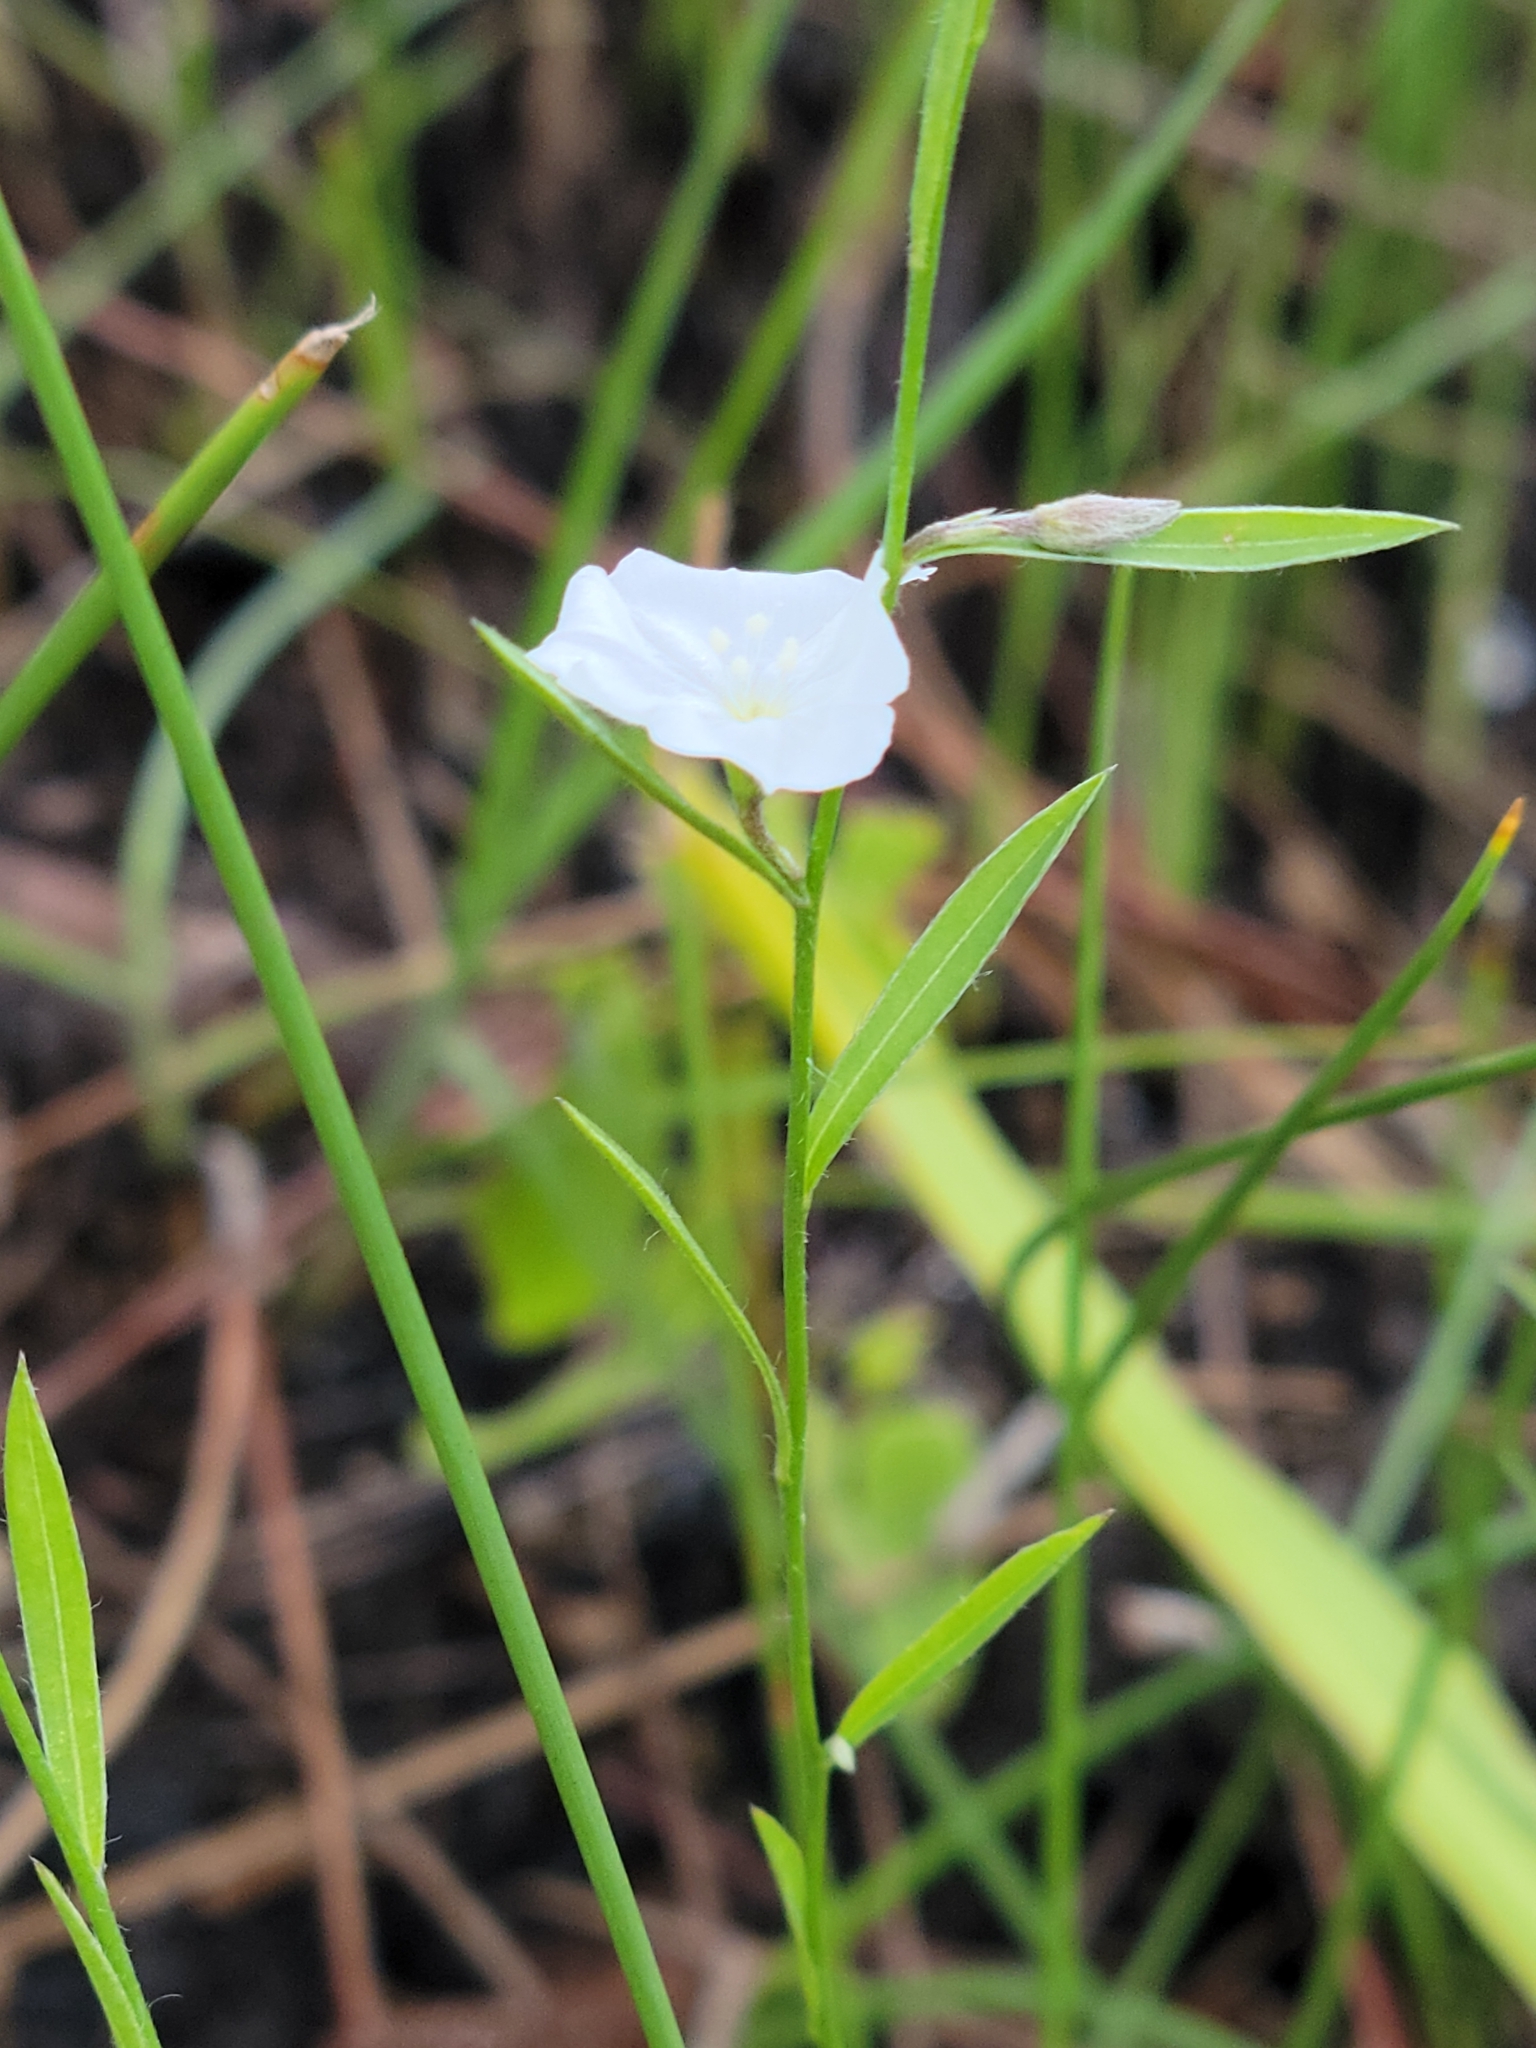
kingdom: Plantae
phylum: Tracheophyta
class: Magnoliopsida
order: Solanales
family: Convolvulaceae
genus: Evolvulus
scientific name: Evolvulus sericeus
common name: Blue dots
